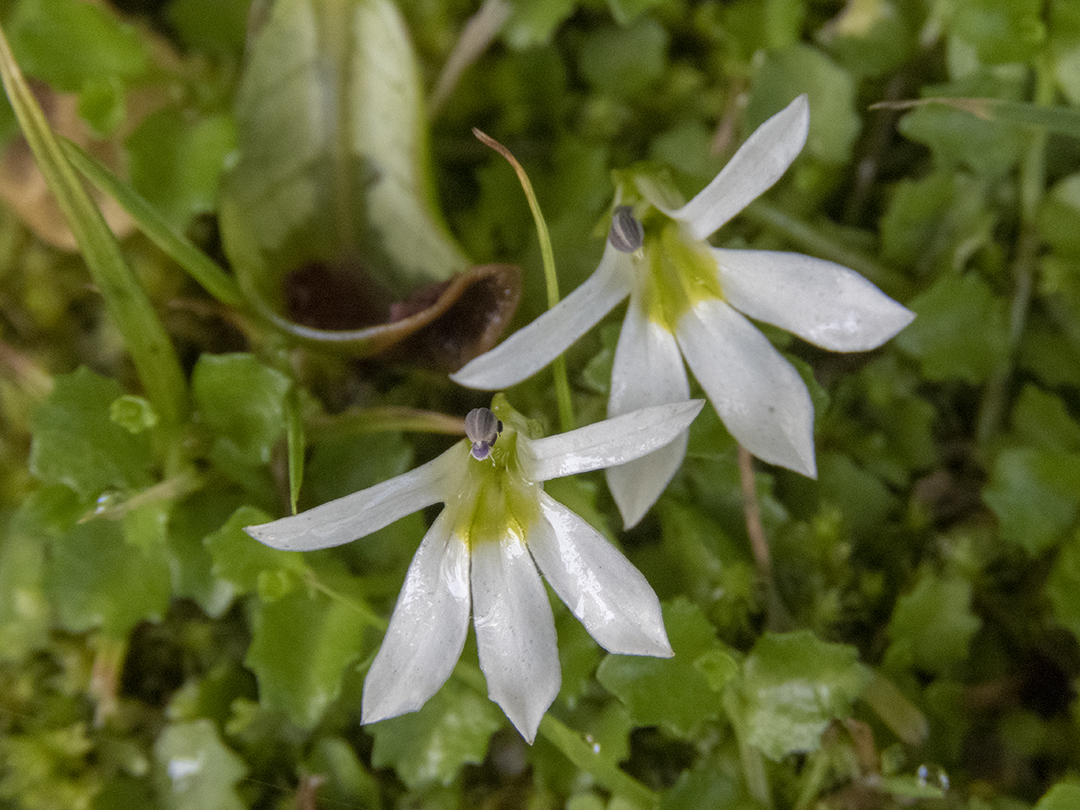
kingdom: Plantae
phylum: Tracheophyta
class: Magnoliopsida
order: Asterales
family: Campanulaceae
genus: Lobelia
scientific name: Lobelia angulata
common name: Lawn lobelia
